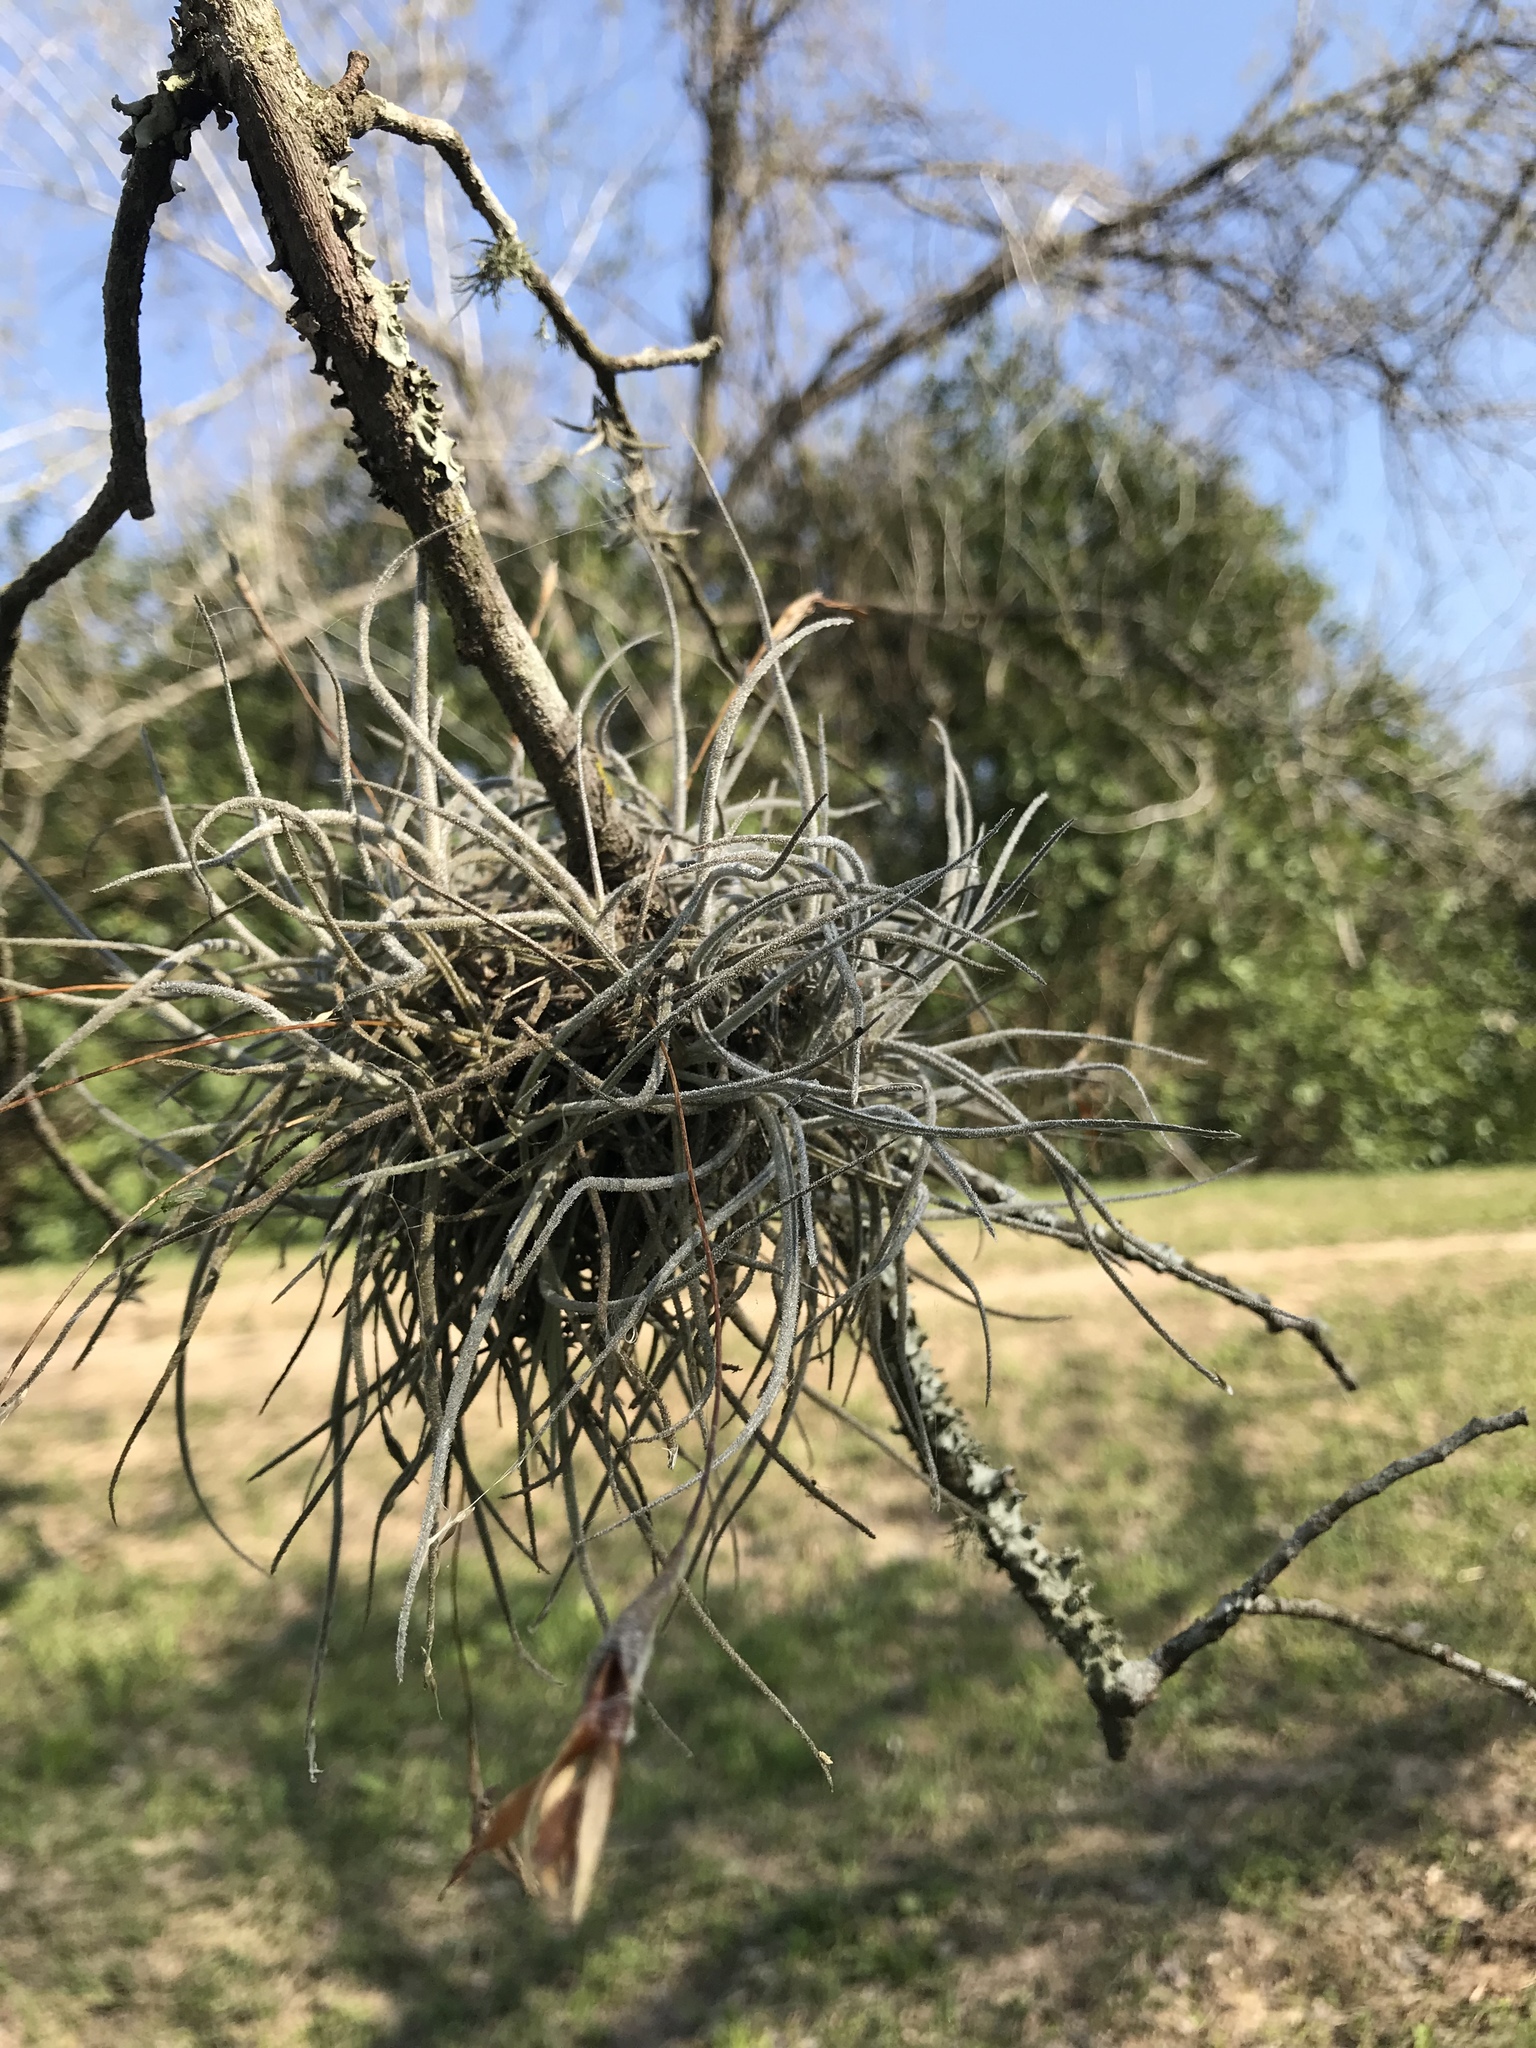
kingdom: Plantae
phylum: Tracheophyta
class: Liliopsida
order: Poales
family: Bromeliaceae
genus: Tillandsia
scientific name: Tillandsia recurvata
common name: Small ballmoss
